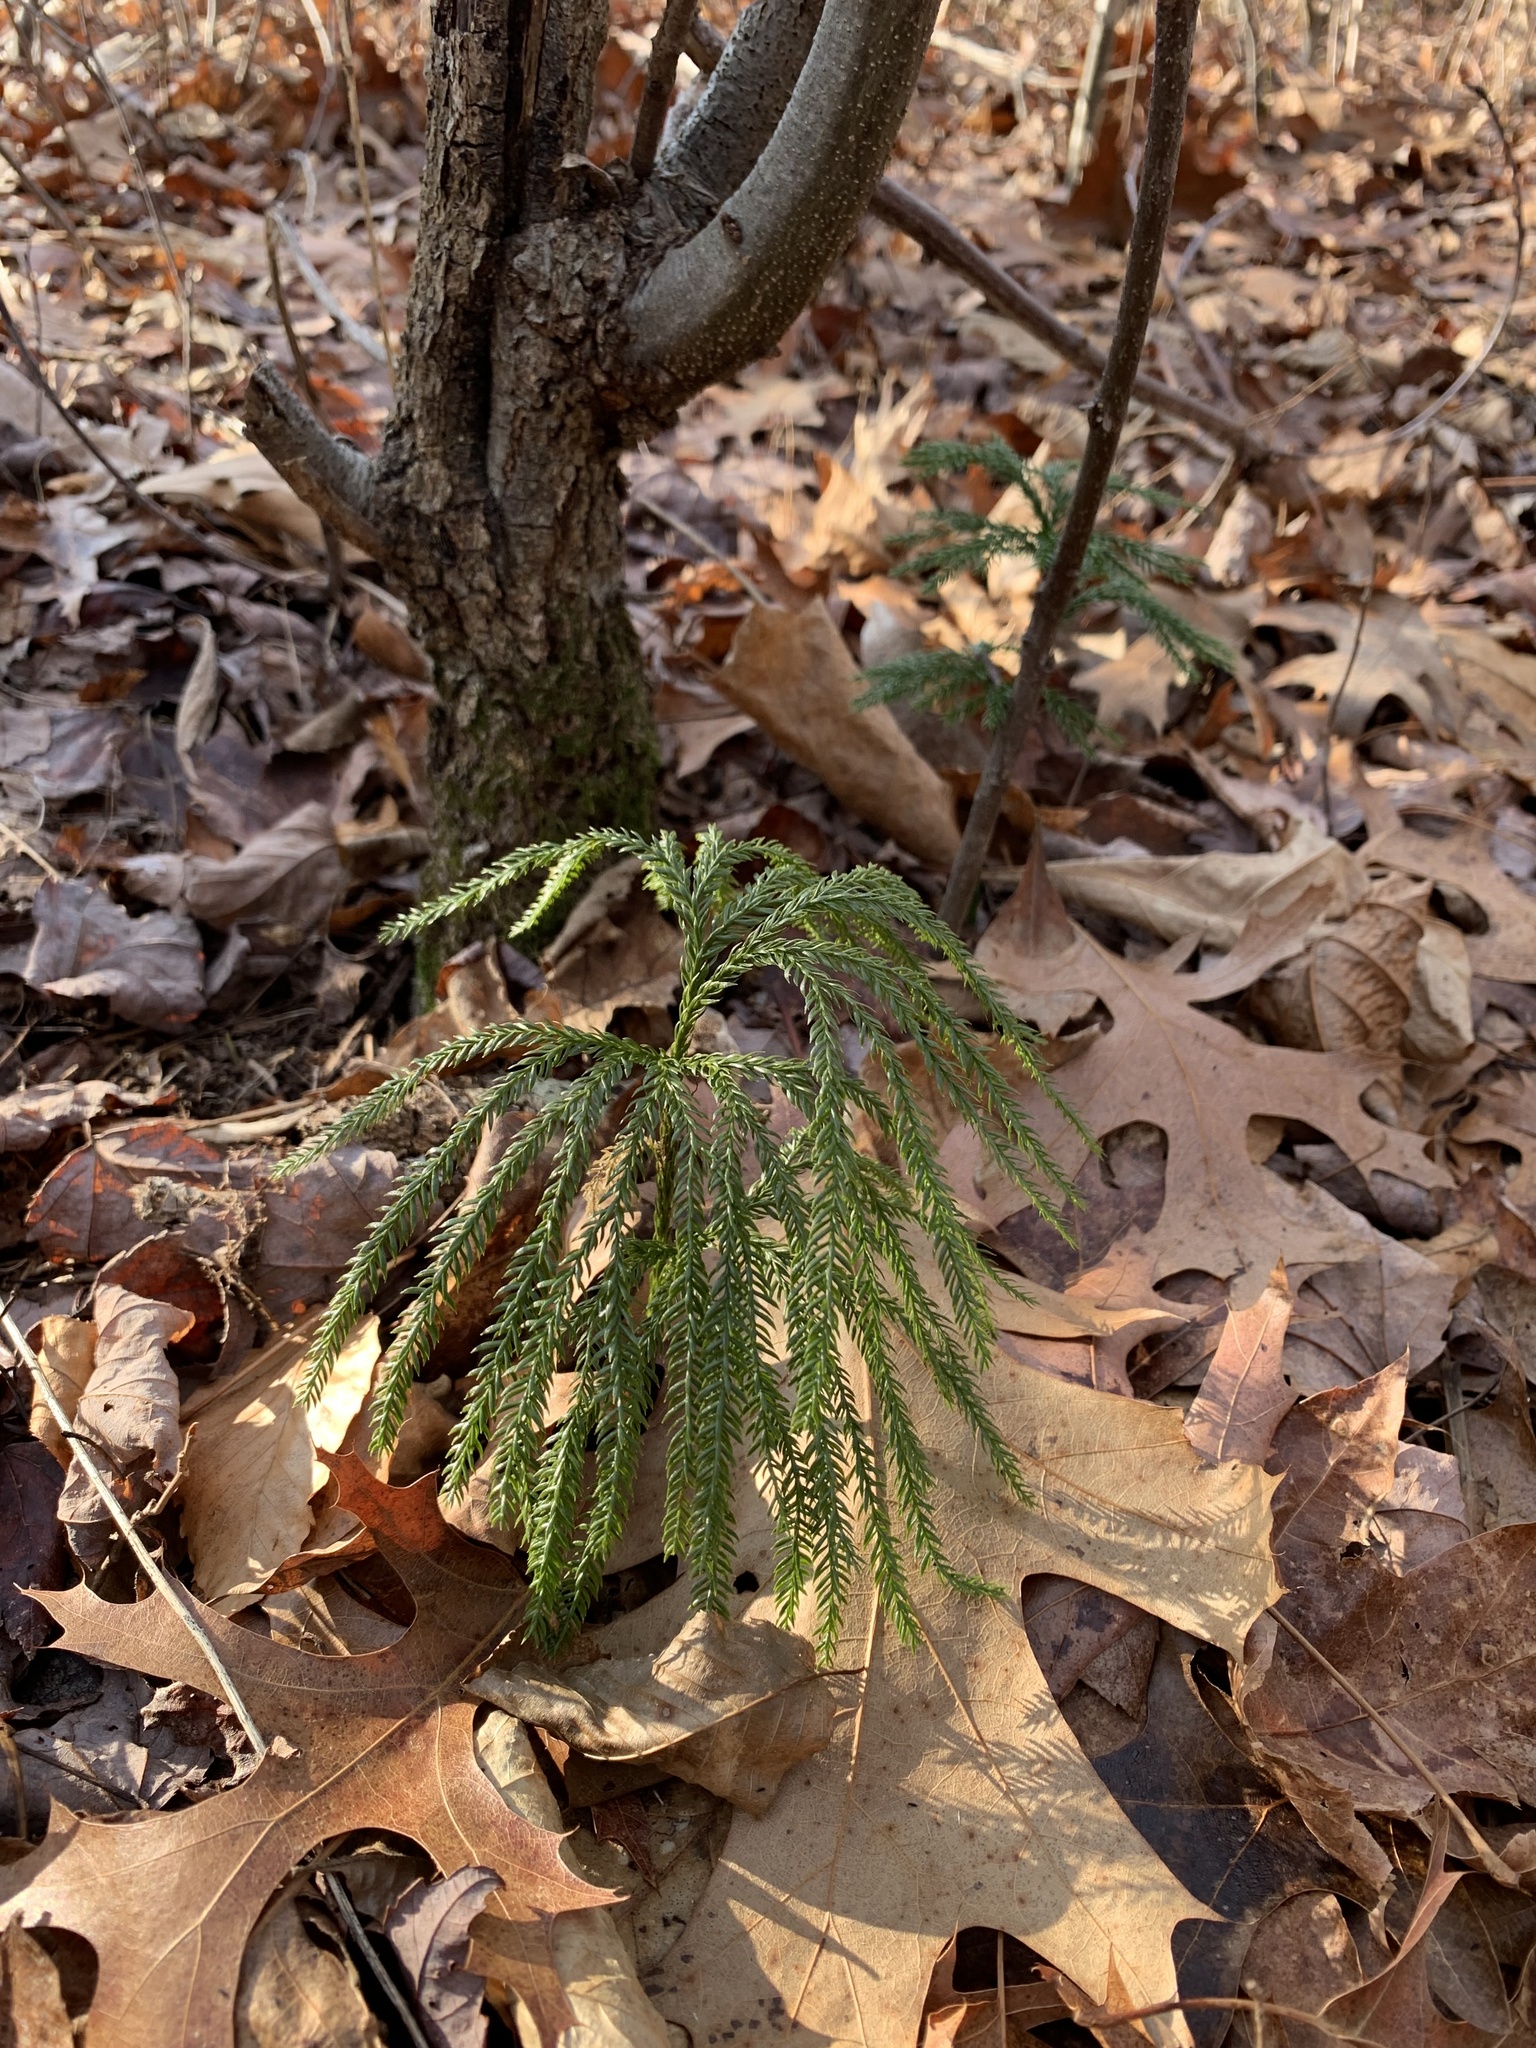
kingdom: Plantae
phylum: Tracheophyta
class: Lycopodiopsida
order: Lycopodiales
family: Lycopodiaceae
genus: Dendrolycopodium
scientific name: Dendrolycopodium obscurum
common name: Common ground-pine
